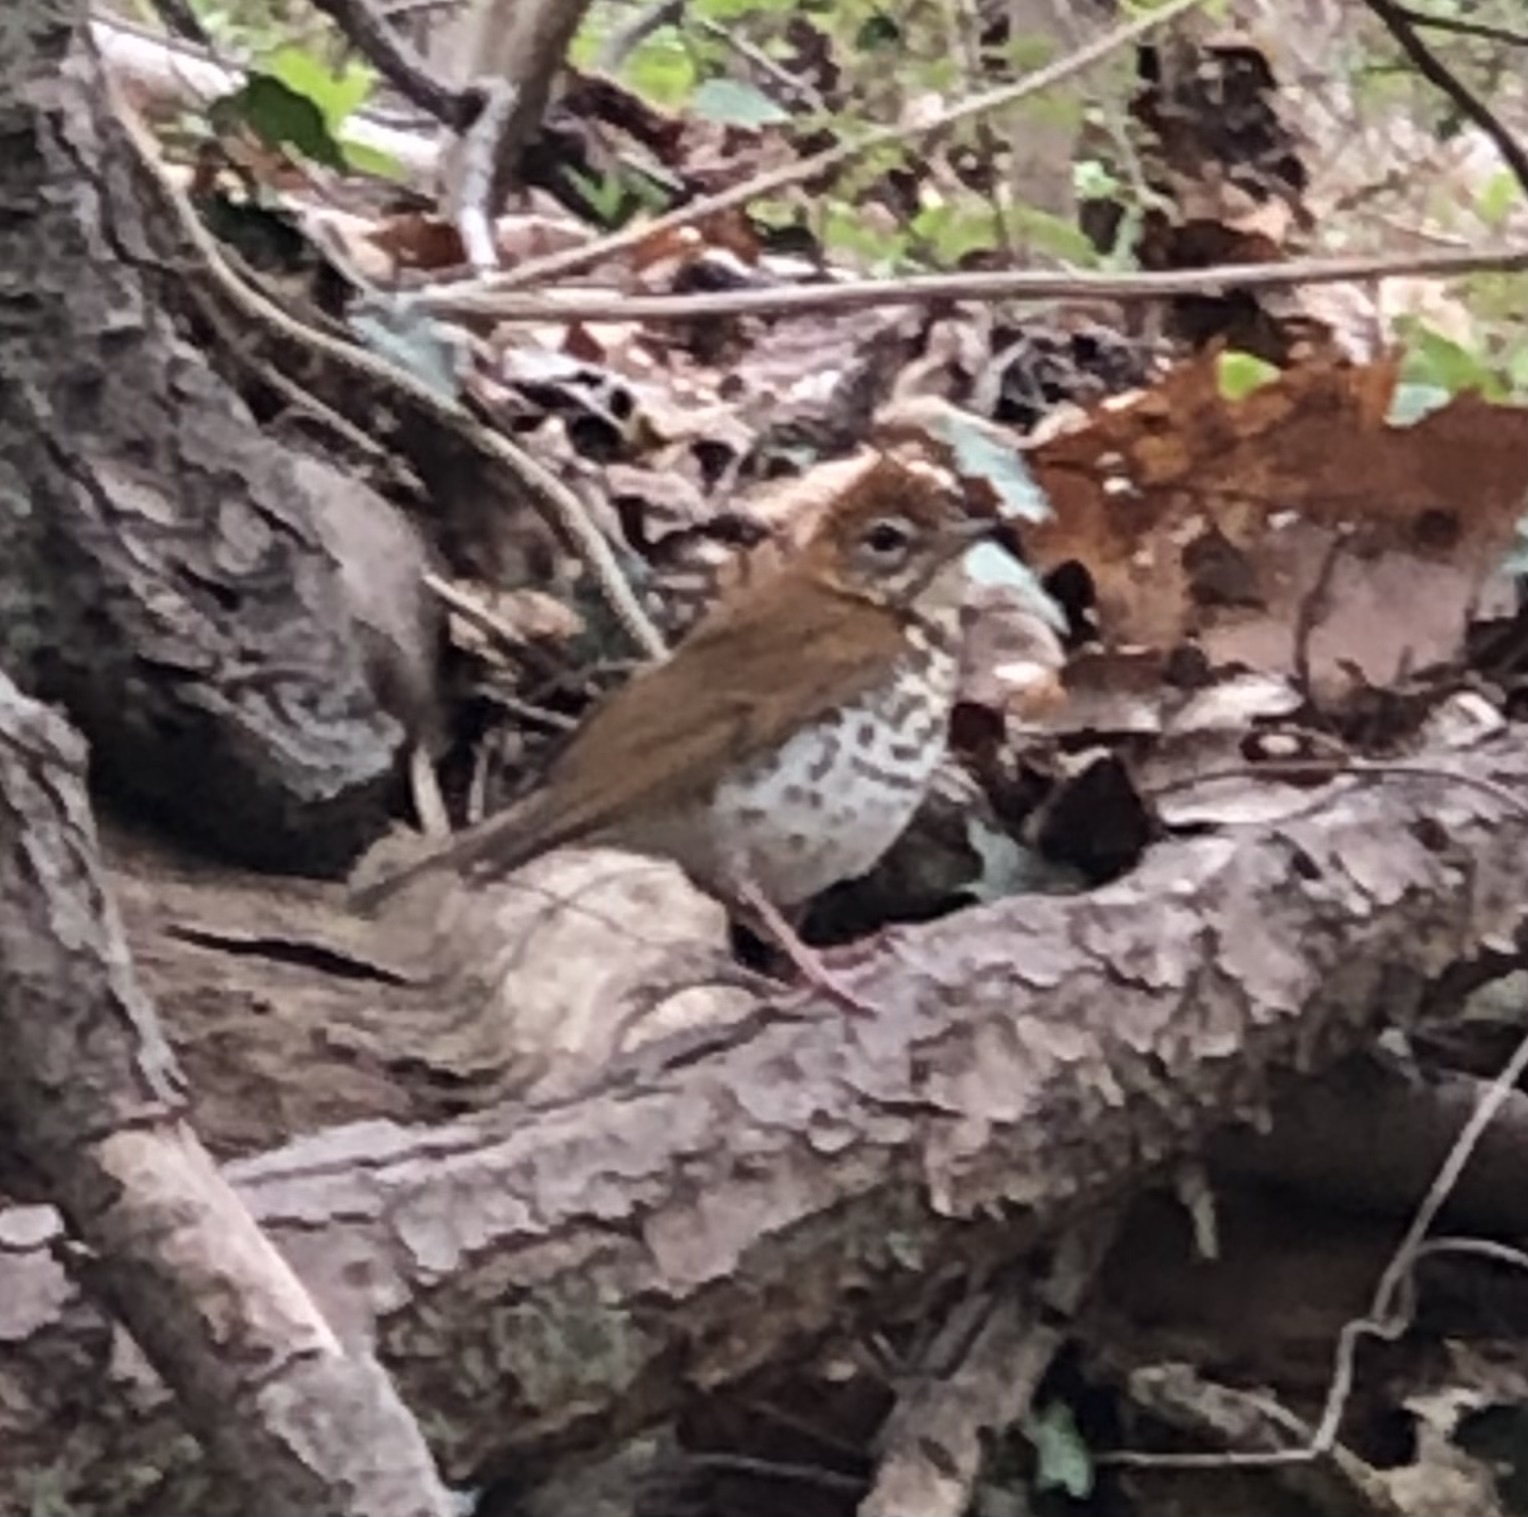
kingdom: Animalia
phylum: Chordata
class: Aves
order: Passeriformes
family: Turdidae
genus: Hylocichla
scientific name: Hylocichla mustelina
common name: Wood thrush
